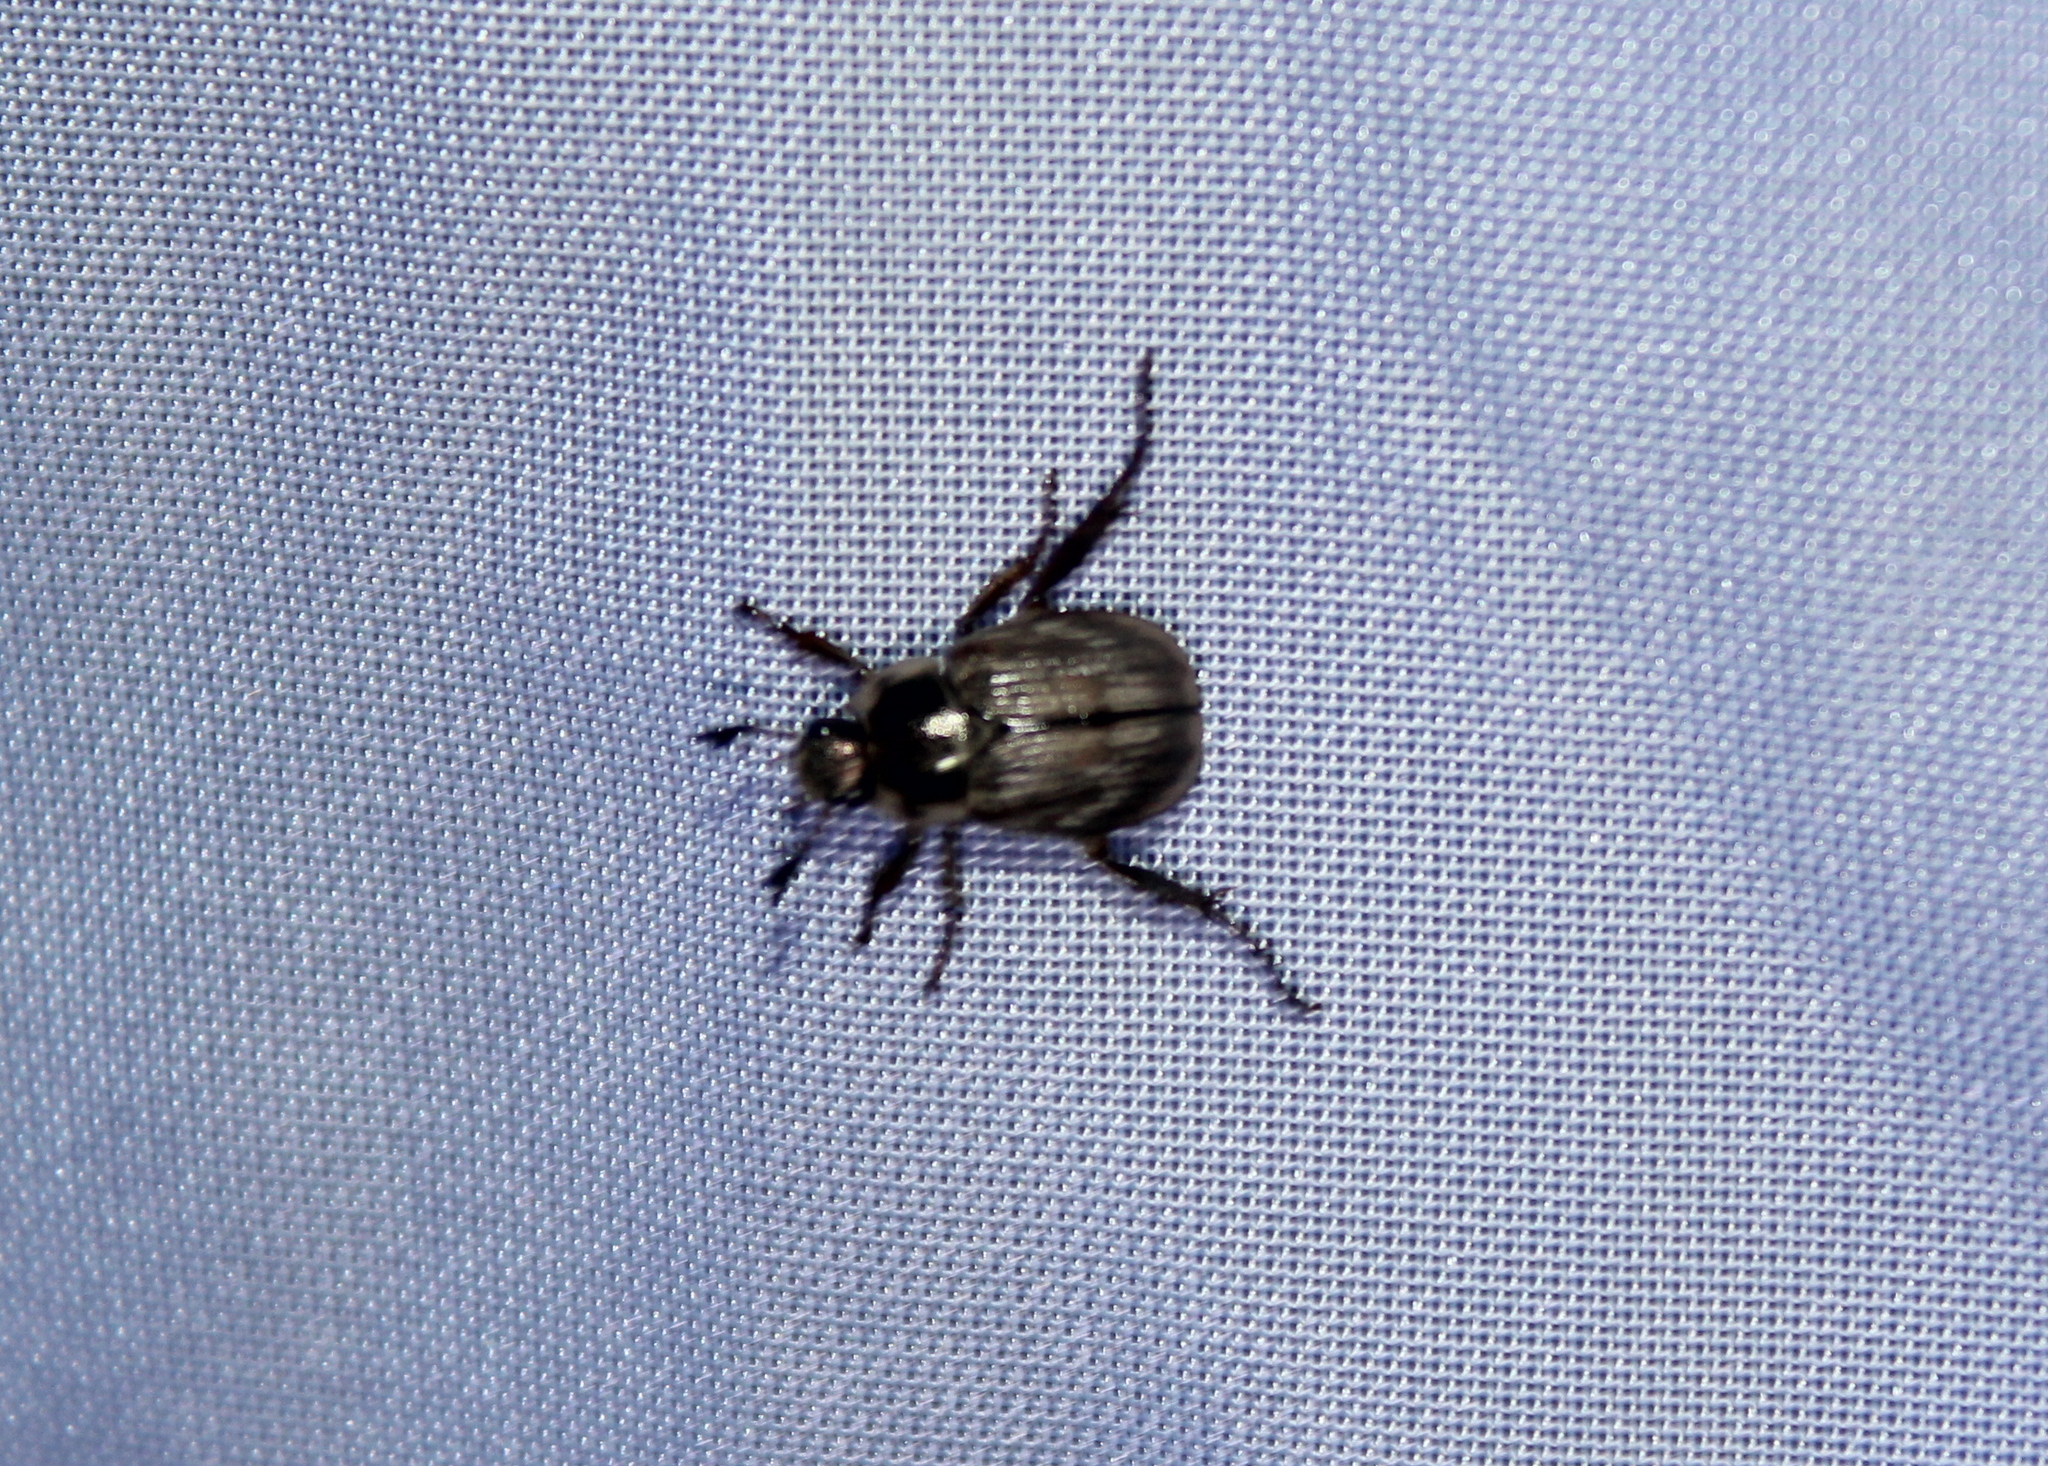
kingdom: Animalia
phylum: Arthropoda
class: Insecta
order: Coleoptera
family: Scarabaeidae
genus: Exomala
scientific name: Exomala orientalis
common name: Oriental beetle
